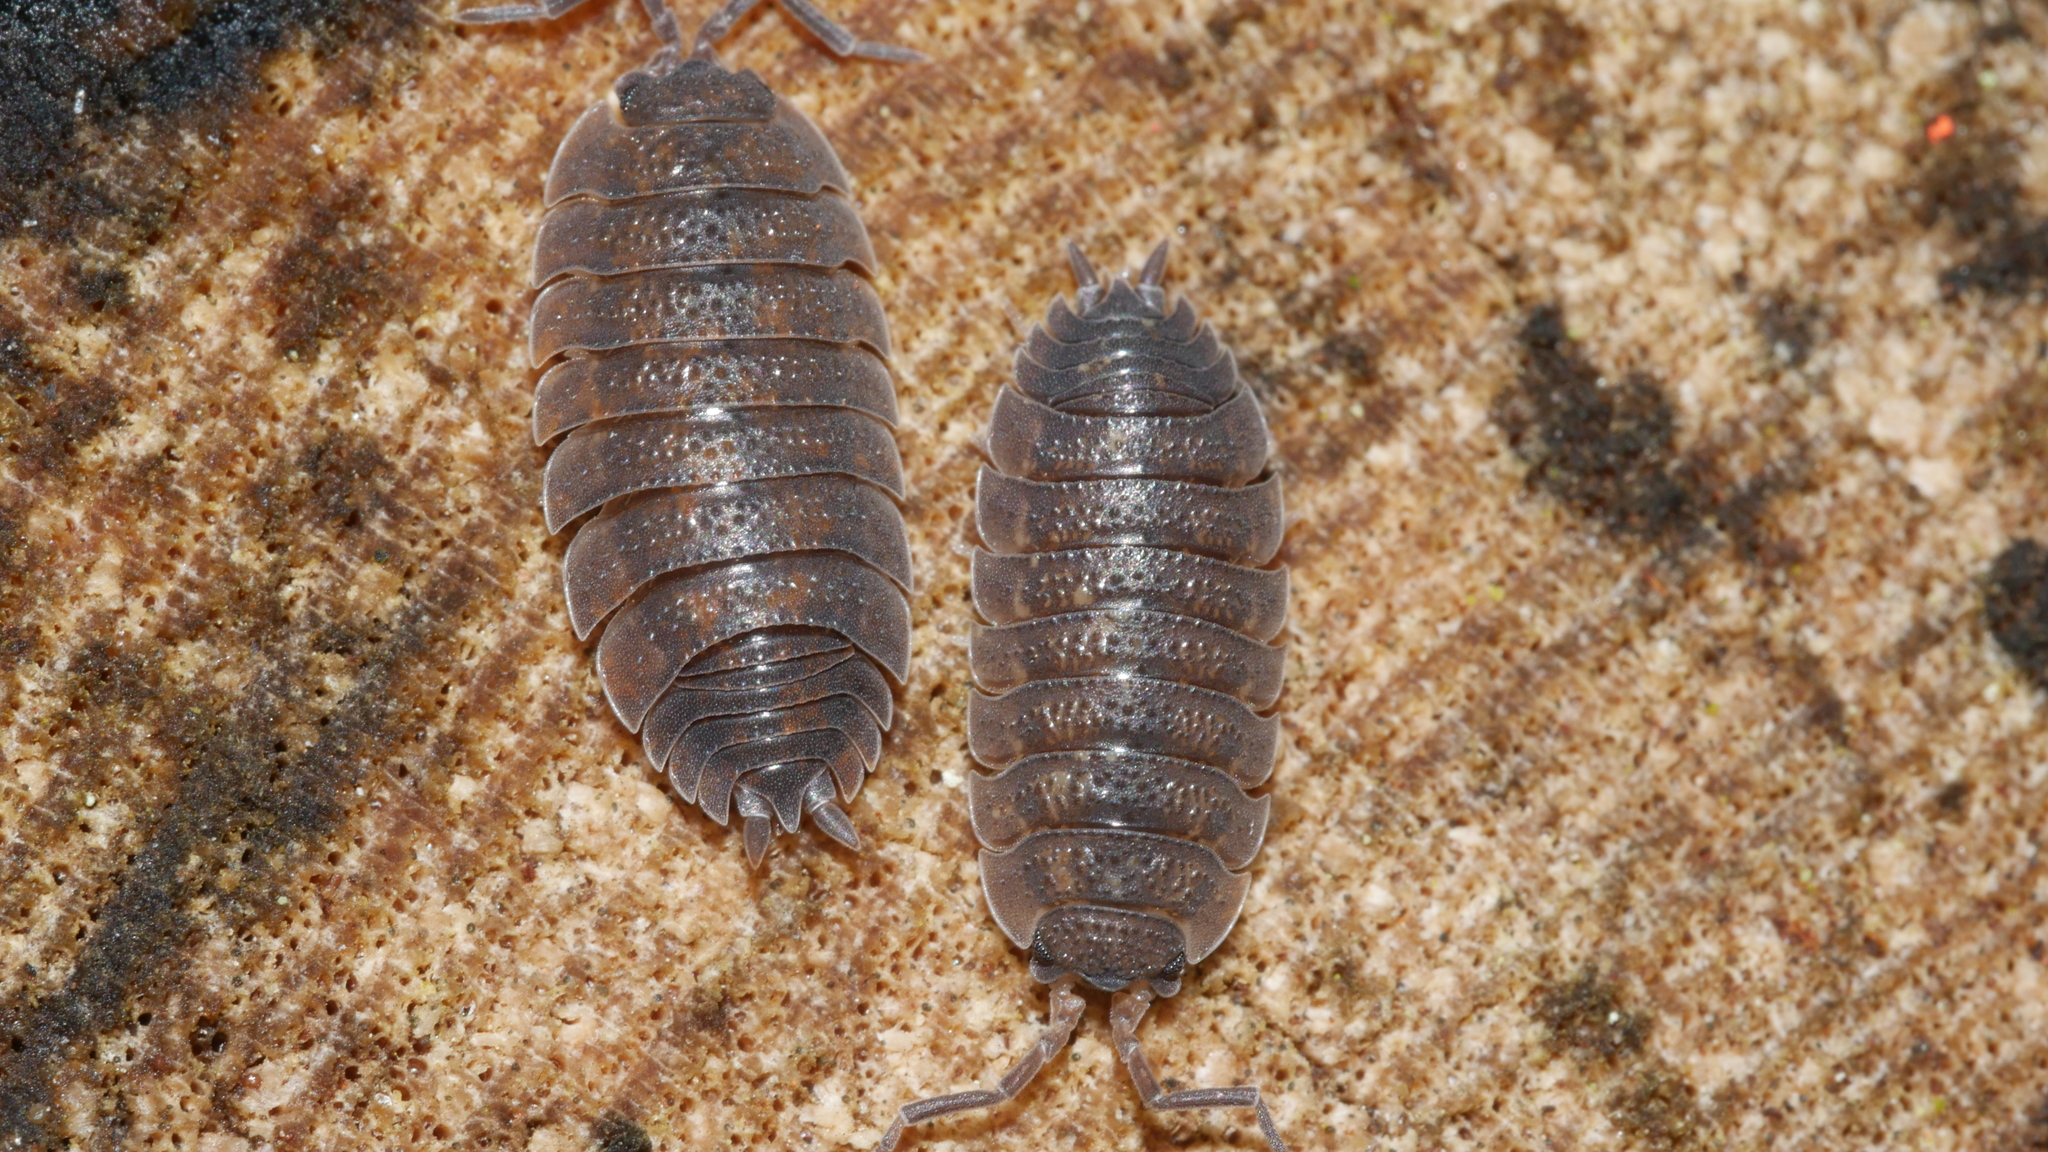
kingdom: Animalia
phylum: Arthropoda
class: Malacostraca
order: Isopoda
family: Porcellionidae
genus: Porcellio
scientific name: Porcellio scaber
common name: Common rough woodlouse
